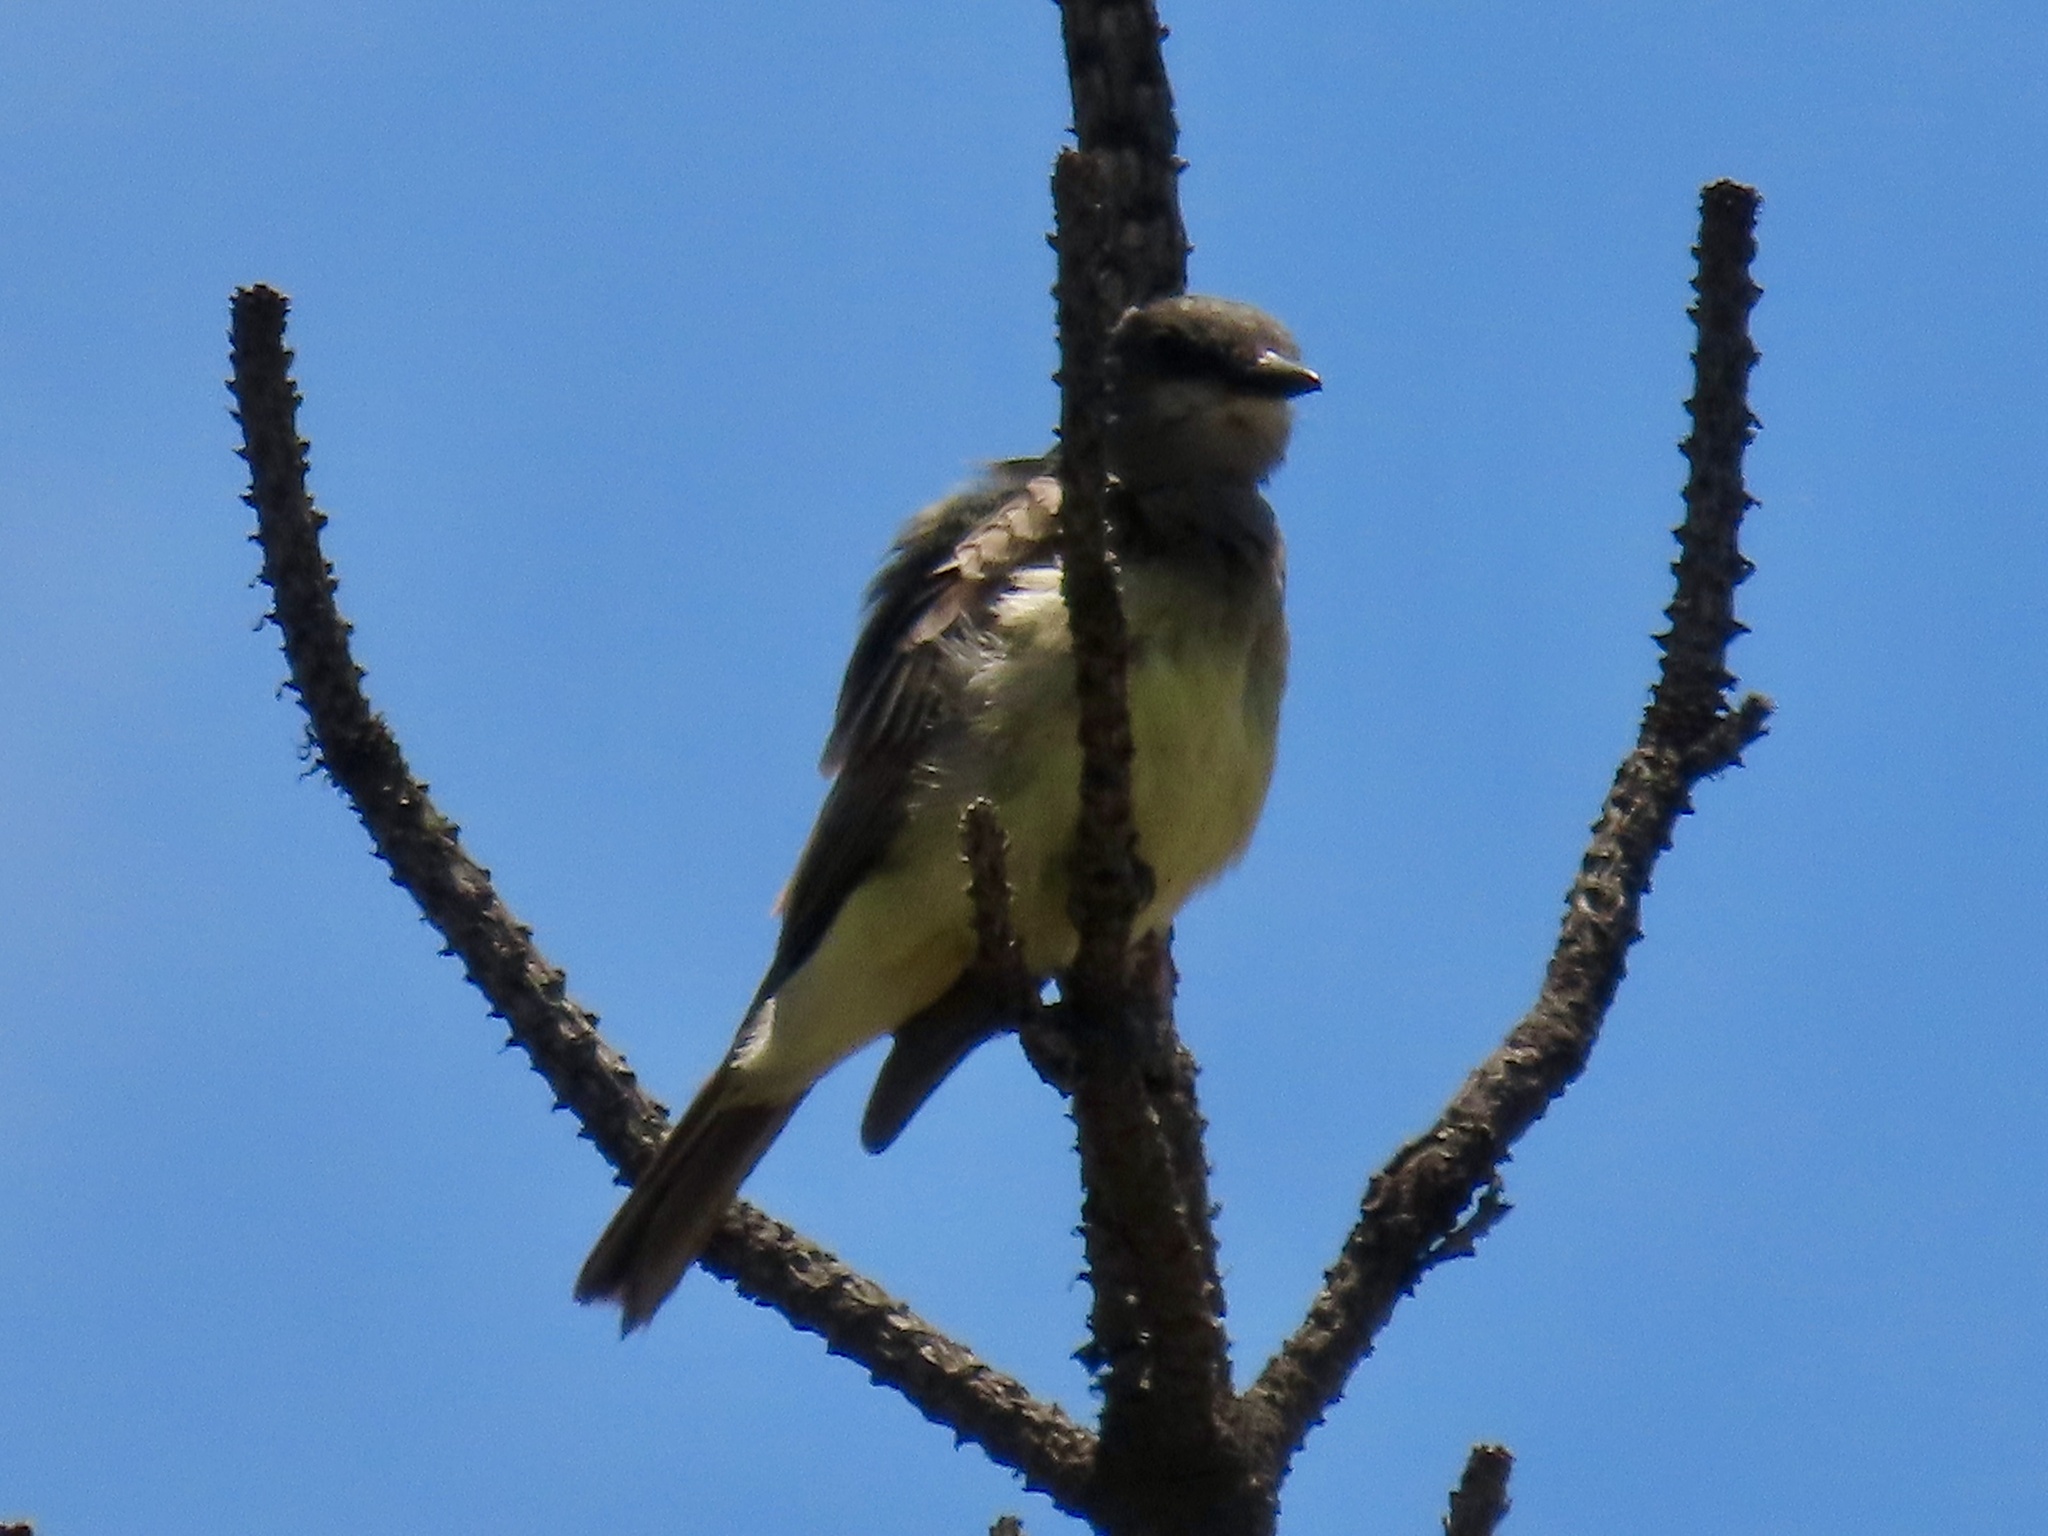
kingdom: Animalia
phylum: Chordata
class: Aves
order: Passeriformes
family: Tyrannidae
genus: Tyrannus
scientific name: Tyrannus vociferans
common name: Cassin's kingbird
